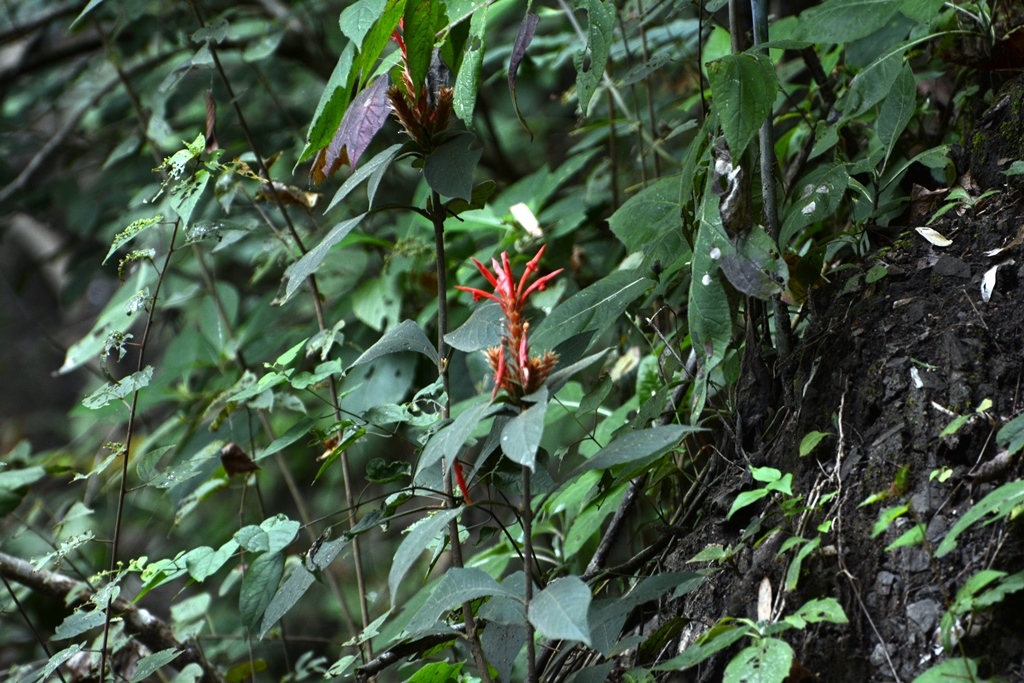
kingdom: Plantae
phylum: Tracheophyta
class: Magnoliopsida
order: Lamiales
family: Acanthaceae
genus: Aphelandra
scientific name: Aphelandra scabra
